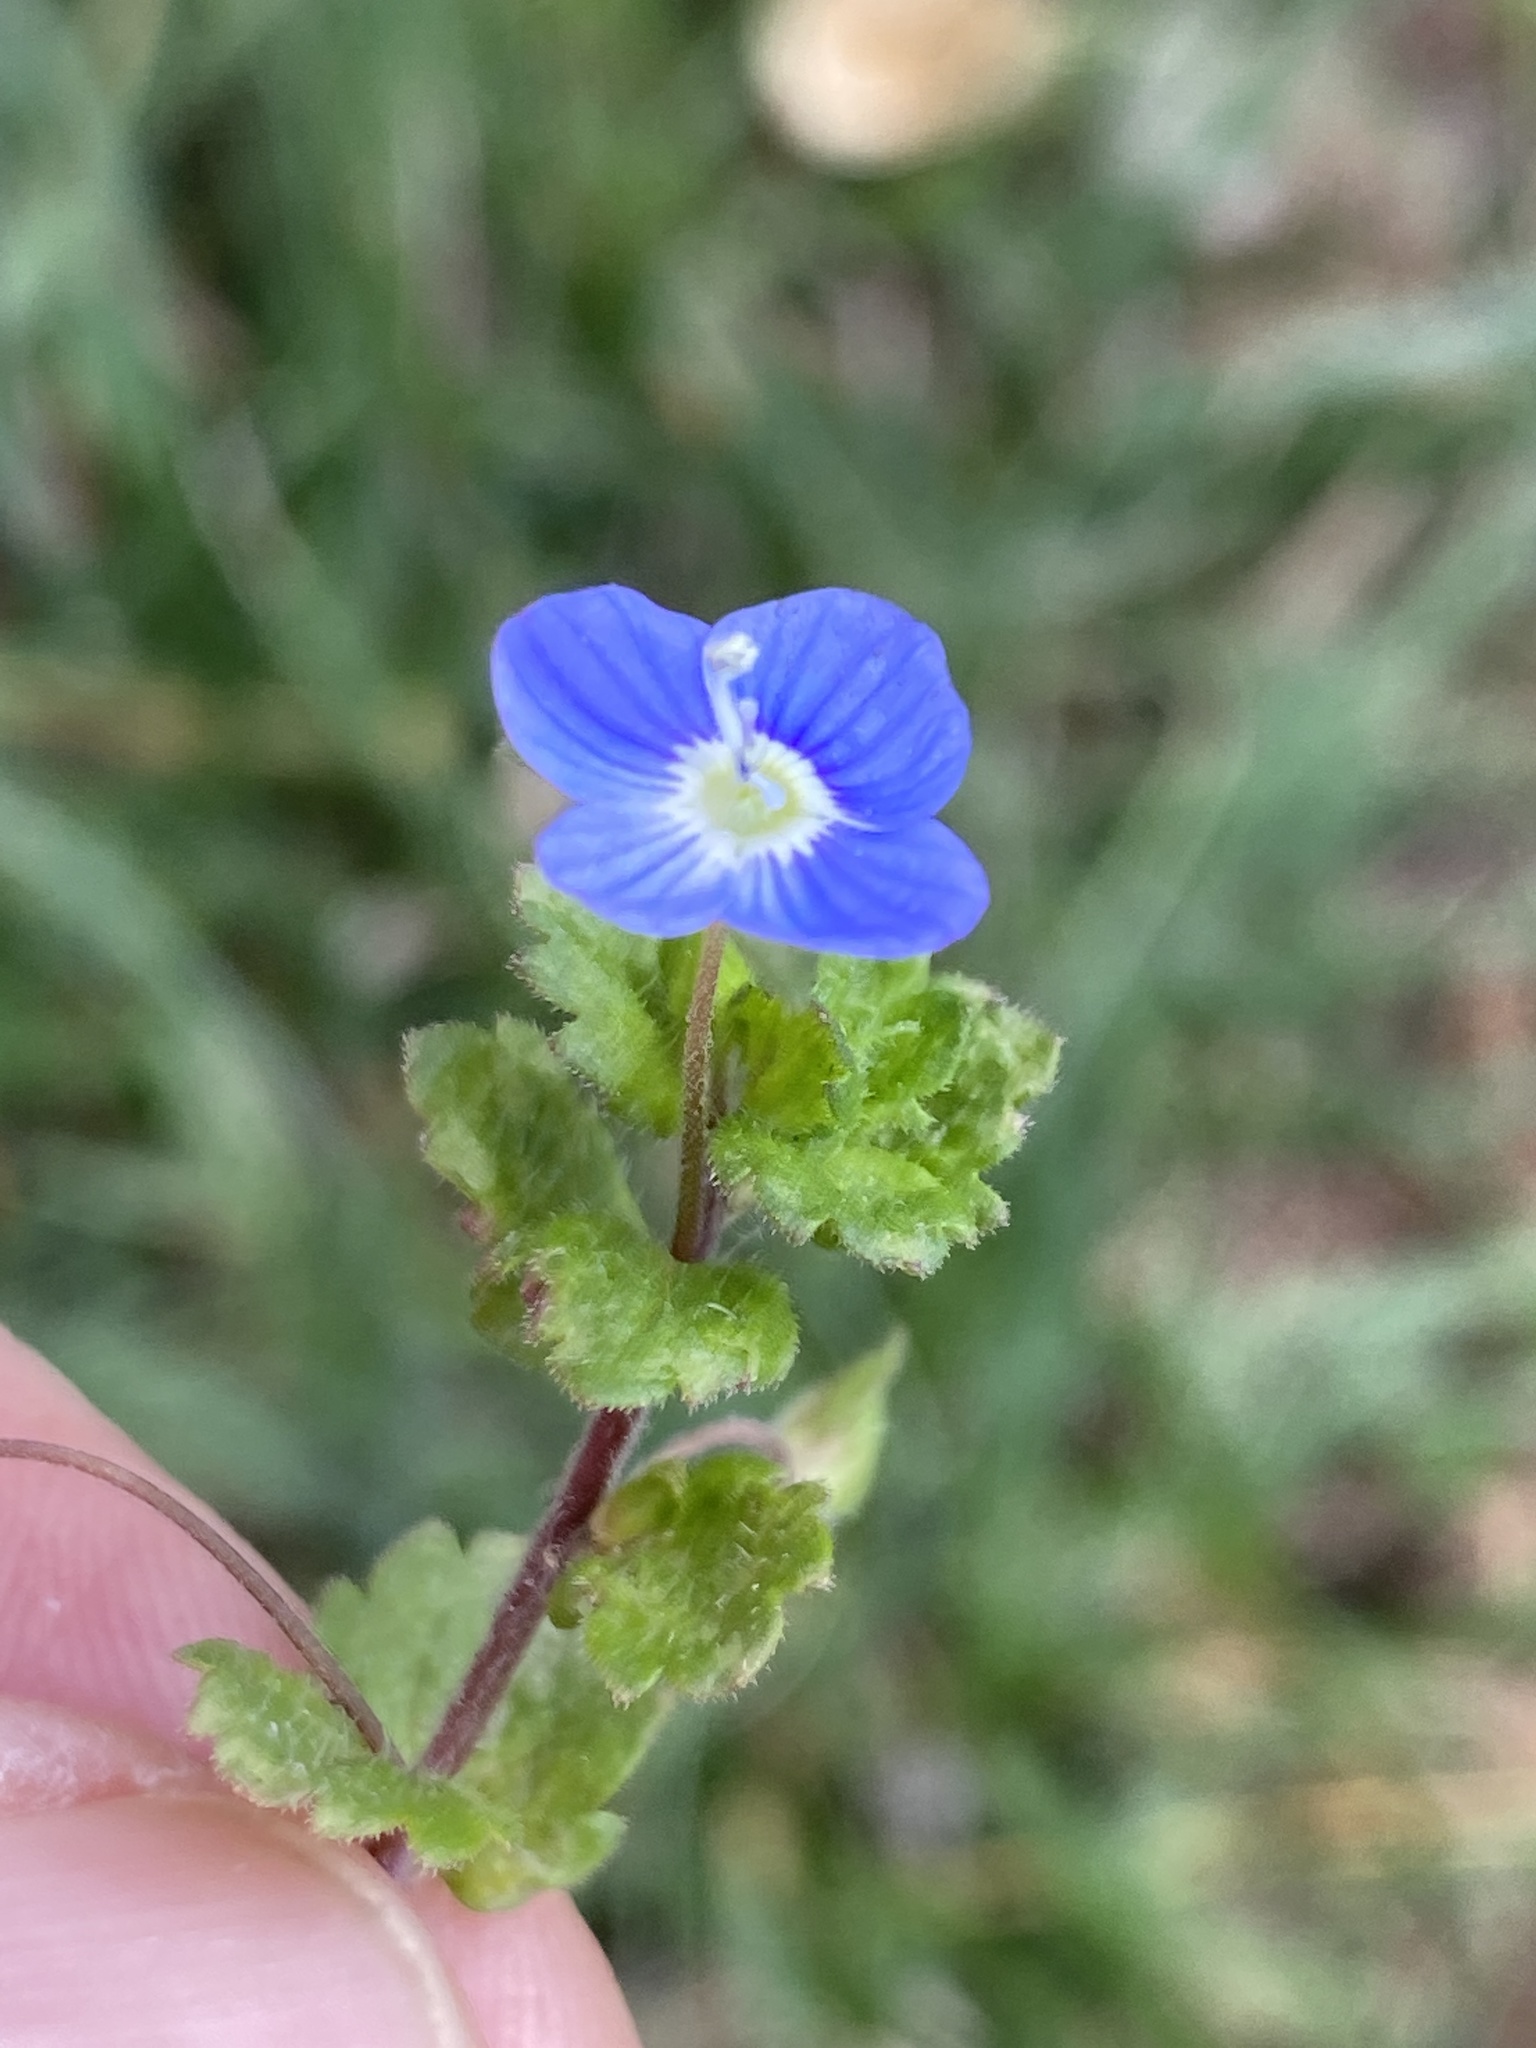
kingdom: Plantae
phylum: Tracheophyta
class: Magnoliopsida
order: Lamiales
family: Plantaginaceae
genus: Veronica
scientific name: Veronica persica
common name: Common field-speedwell
